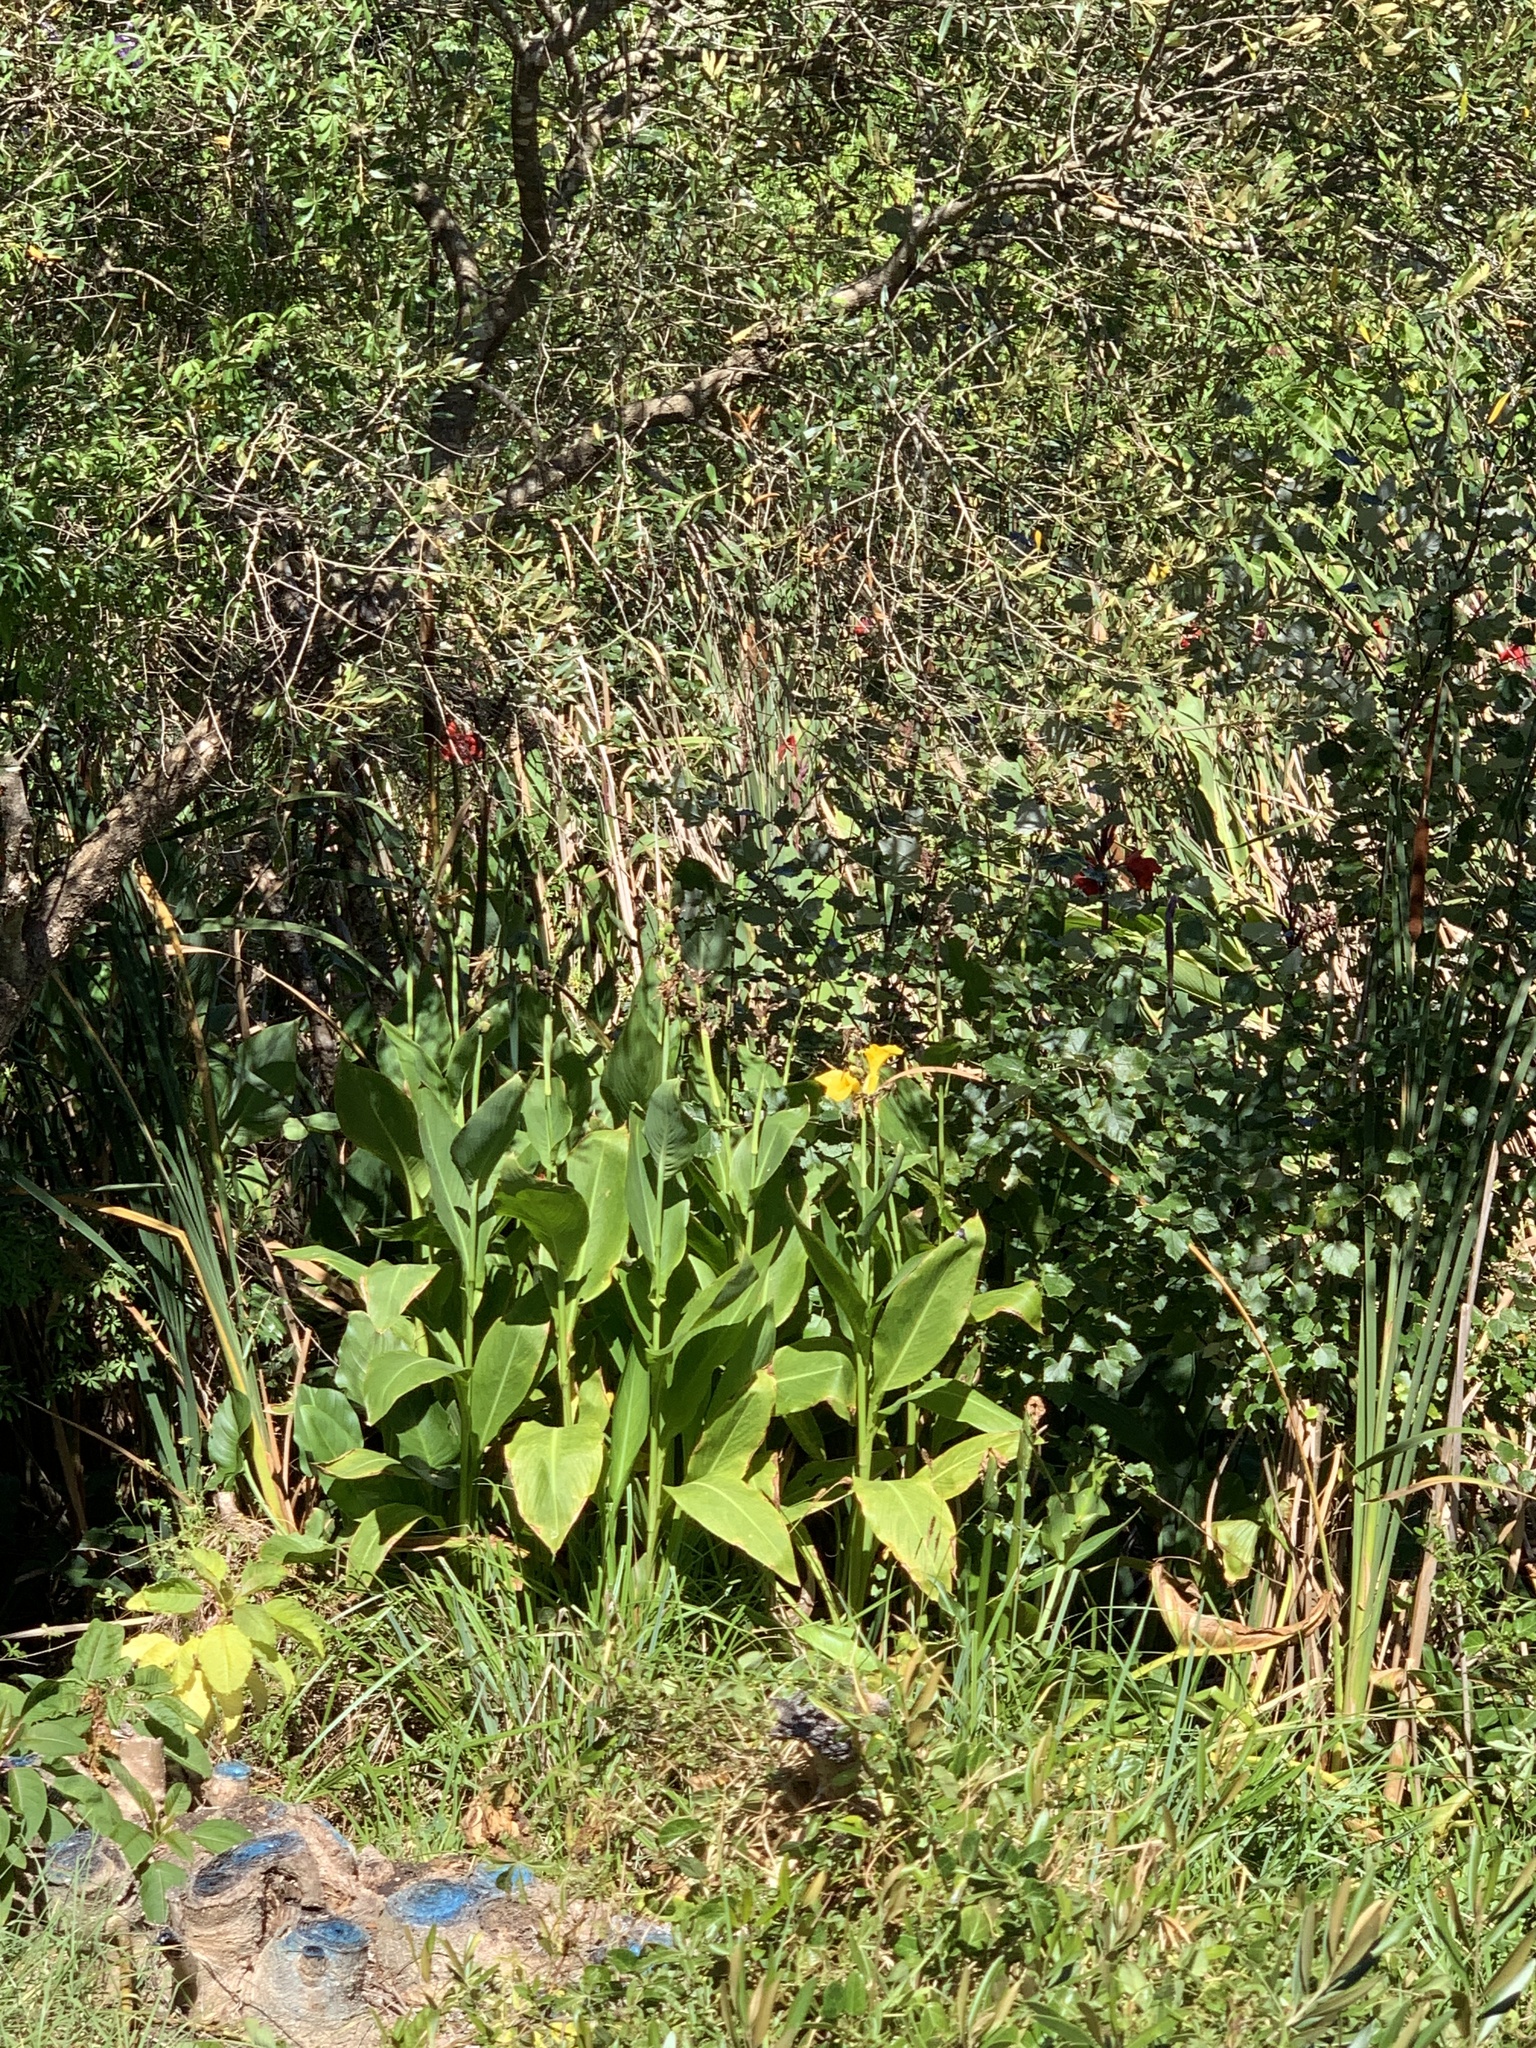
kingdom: Plantae
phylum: Tracheophyta
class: Liliopsida
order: Zingiberales
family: Cannaceae
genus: Canna
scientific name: Canna hybrida
